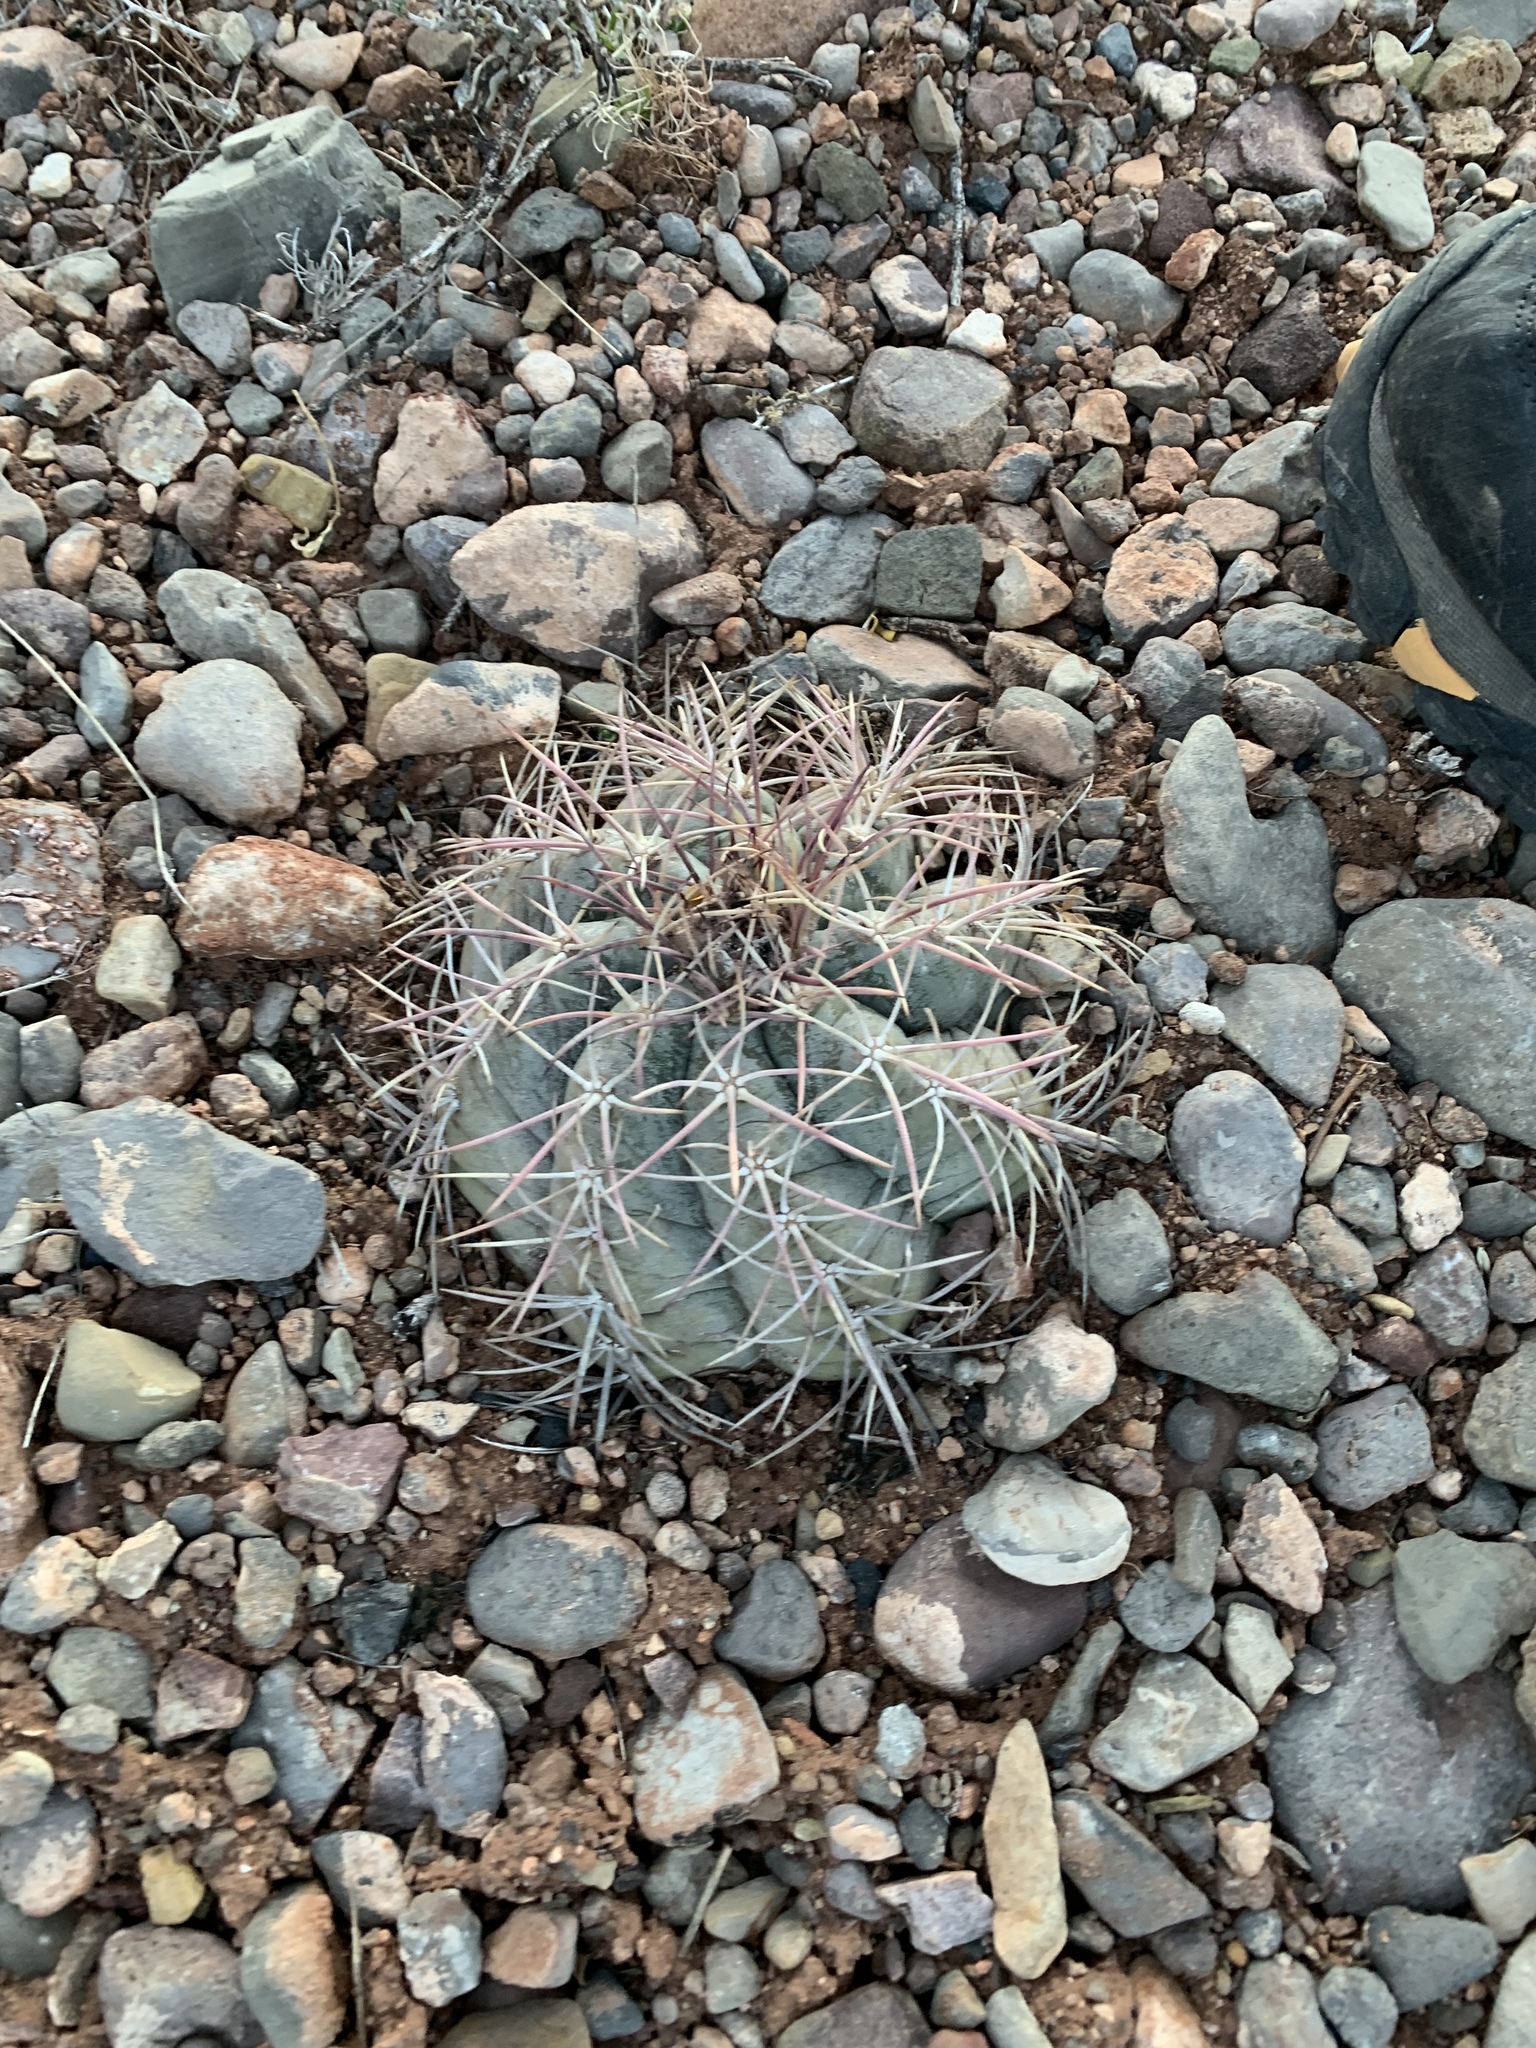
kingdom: Plantae
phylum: Tracheophyta
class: Magnoliopsida
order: Caryophyllales
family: Cactaceae
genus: Echinocactus
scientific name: Echinocactus horizonthalonius
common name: Devilshead
